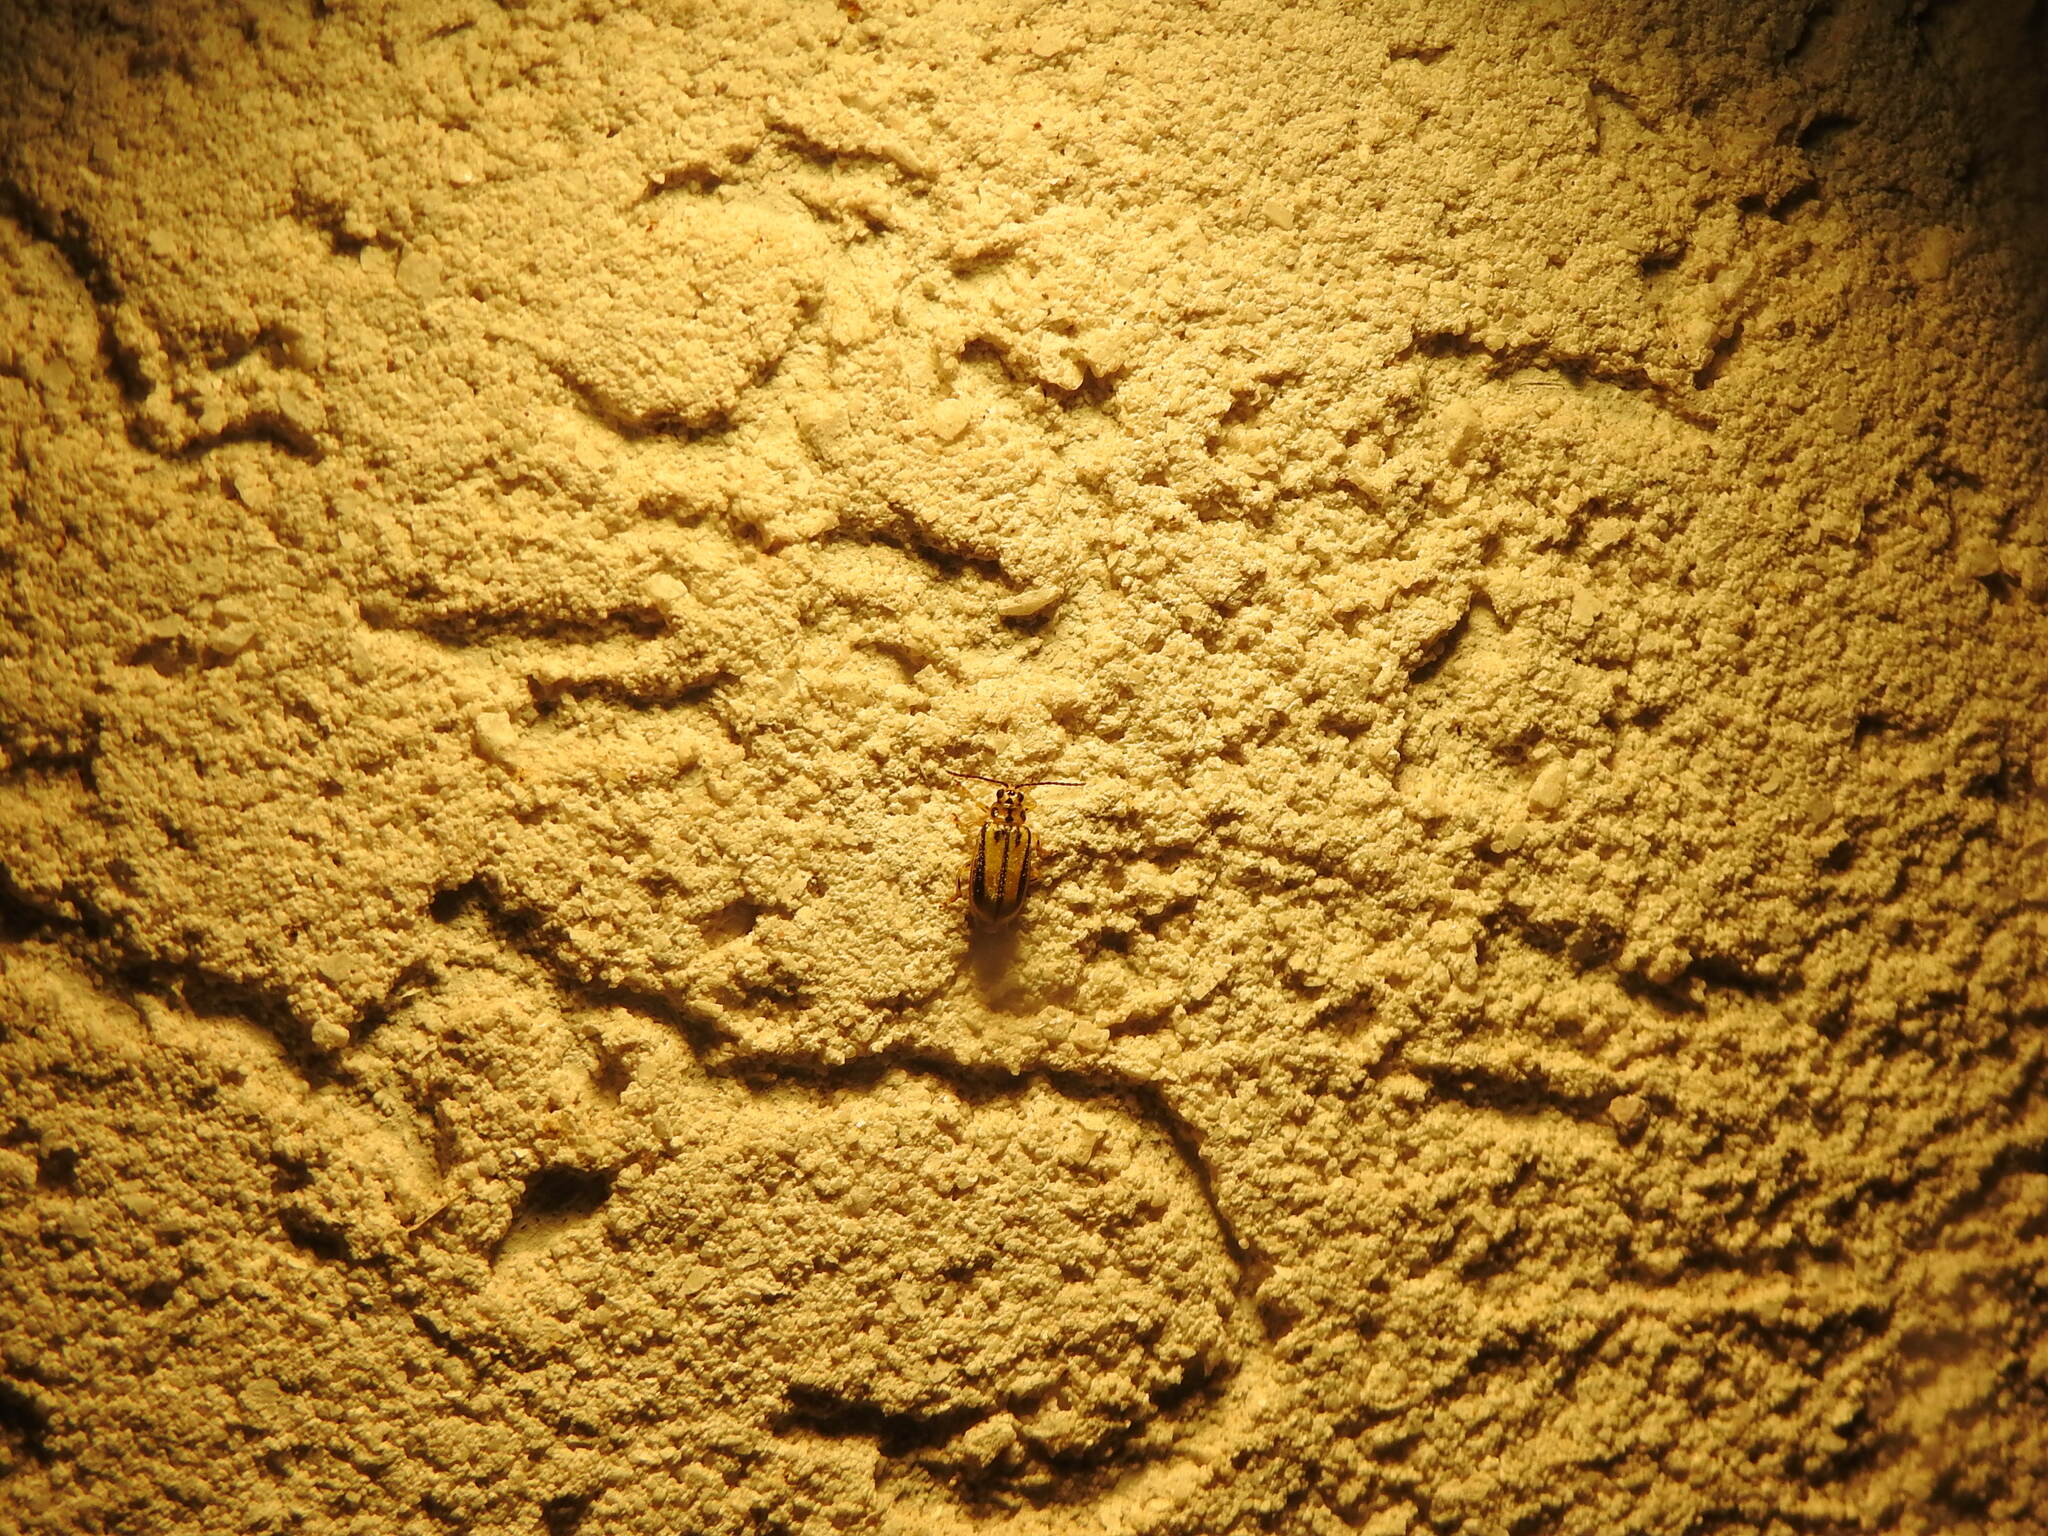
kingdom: Animalia
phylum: Arthropoda
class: Insecta
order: Coleoptera
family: Chrysomelidae
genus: Xanthogaleruca
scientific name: Xanthogaleruca luteola
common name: Elm leaf beetle
